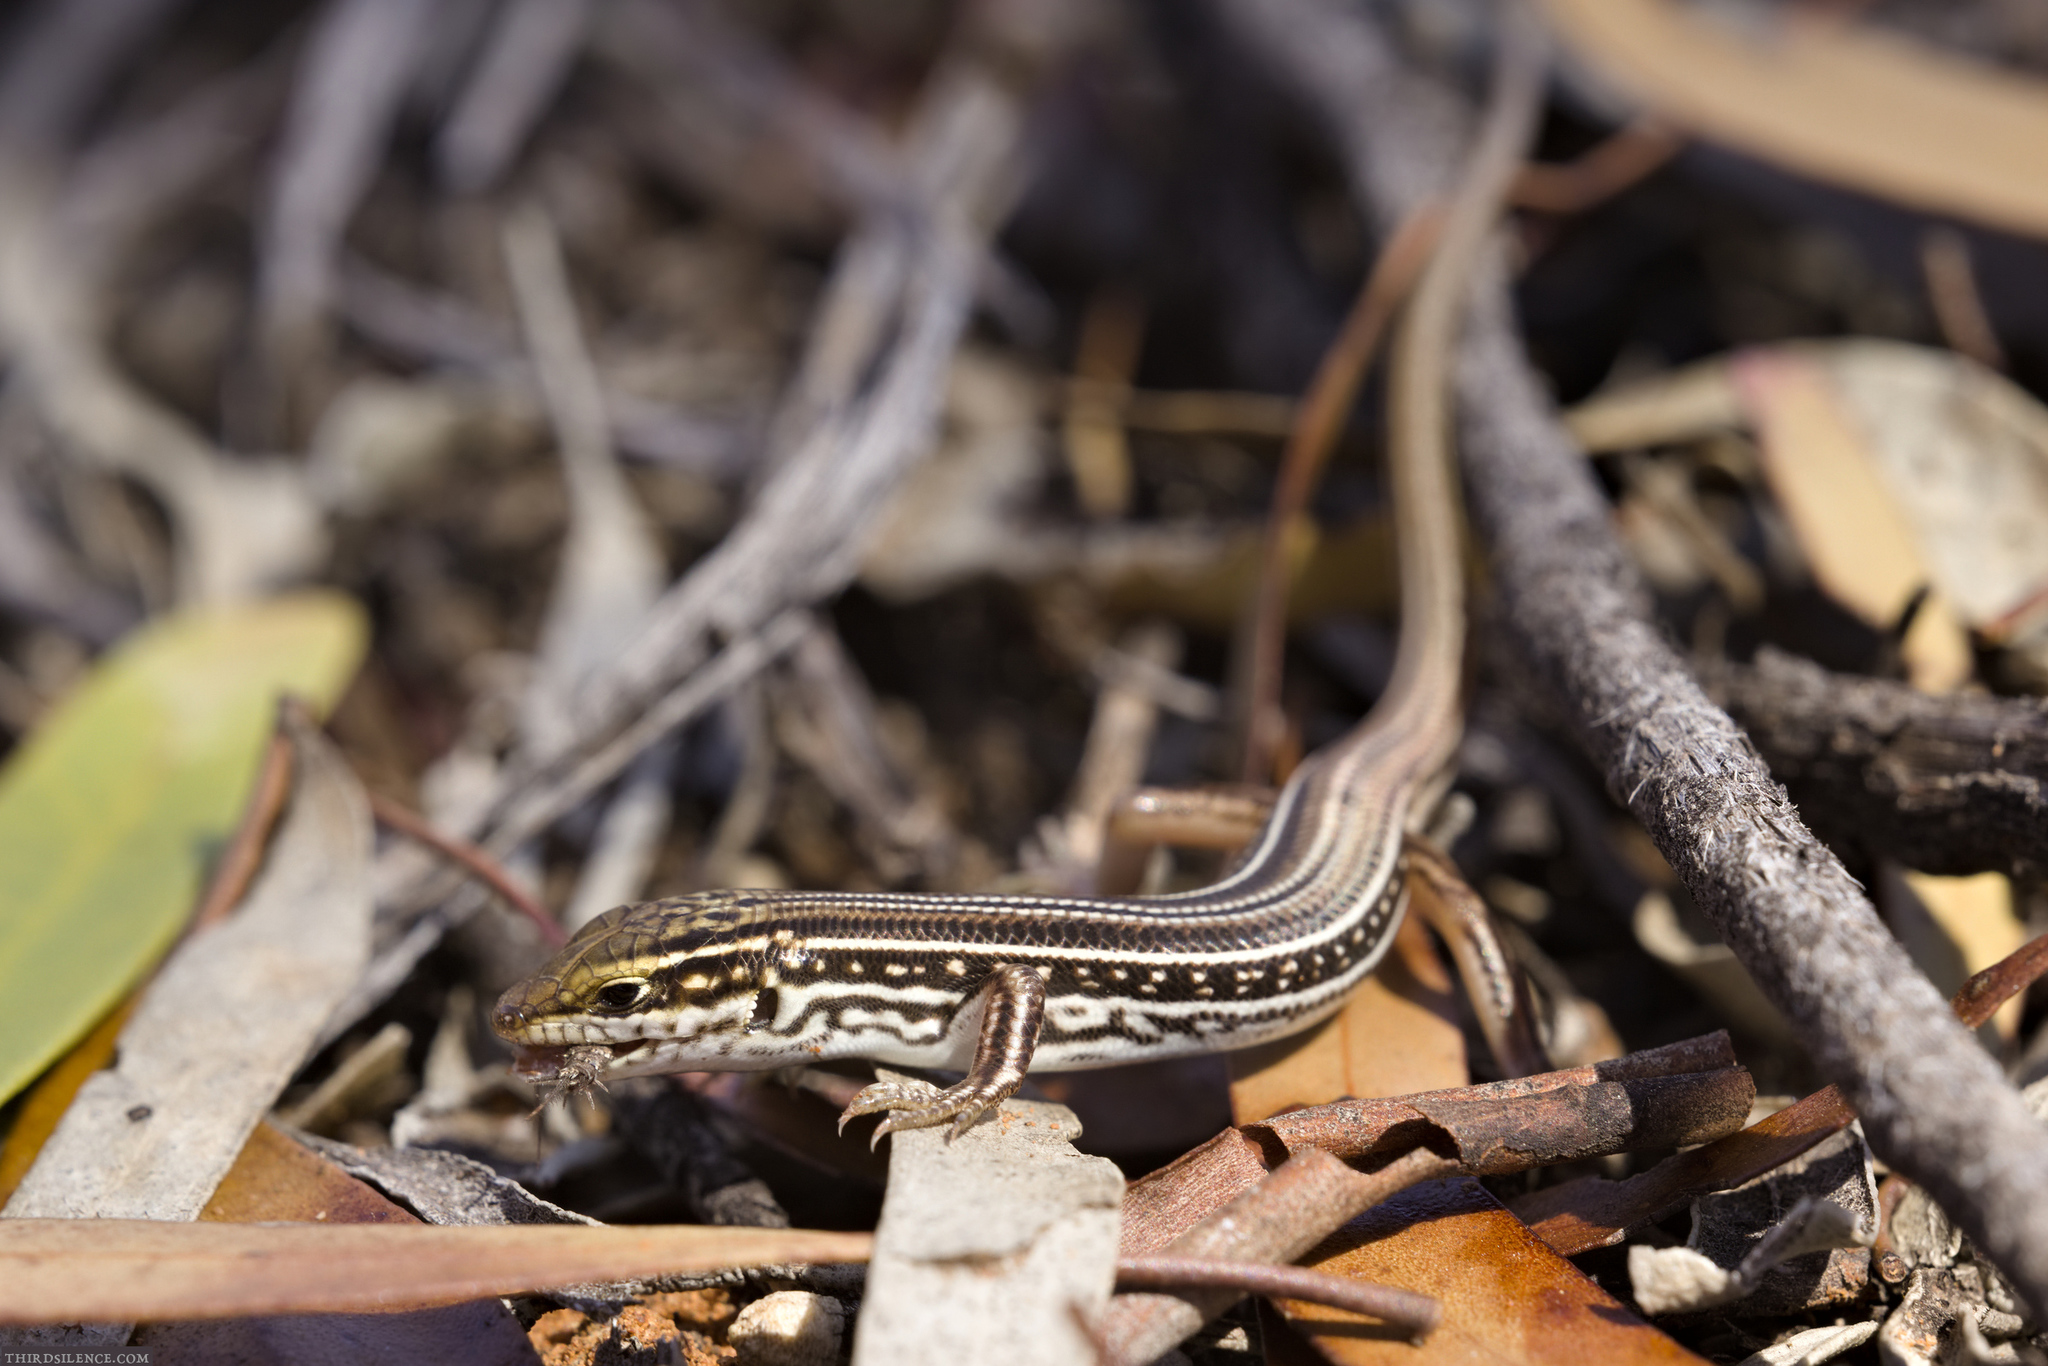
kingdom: Animalia
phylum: Chordata
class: Squamata
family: Scincidae
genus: Ctenotus
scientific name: Ctenotus regius
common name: Pale-rumped ctenotus
